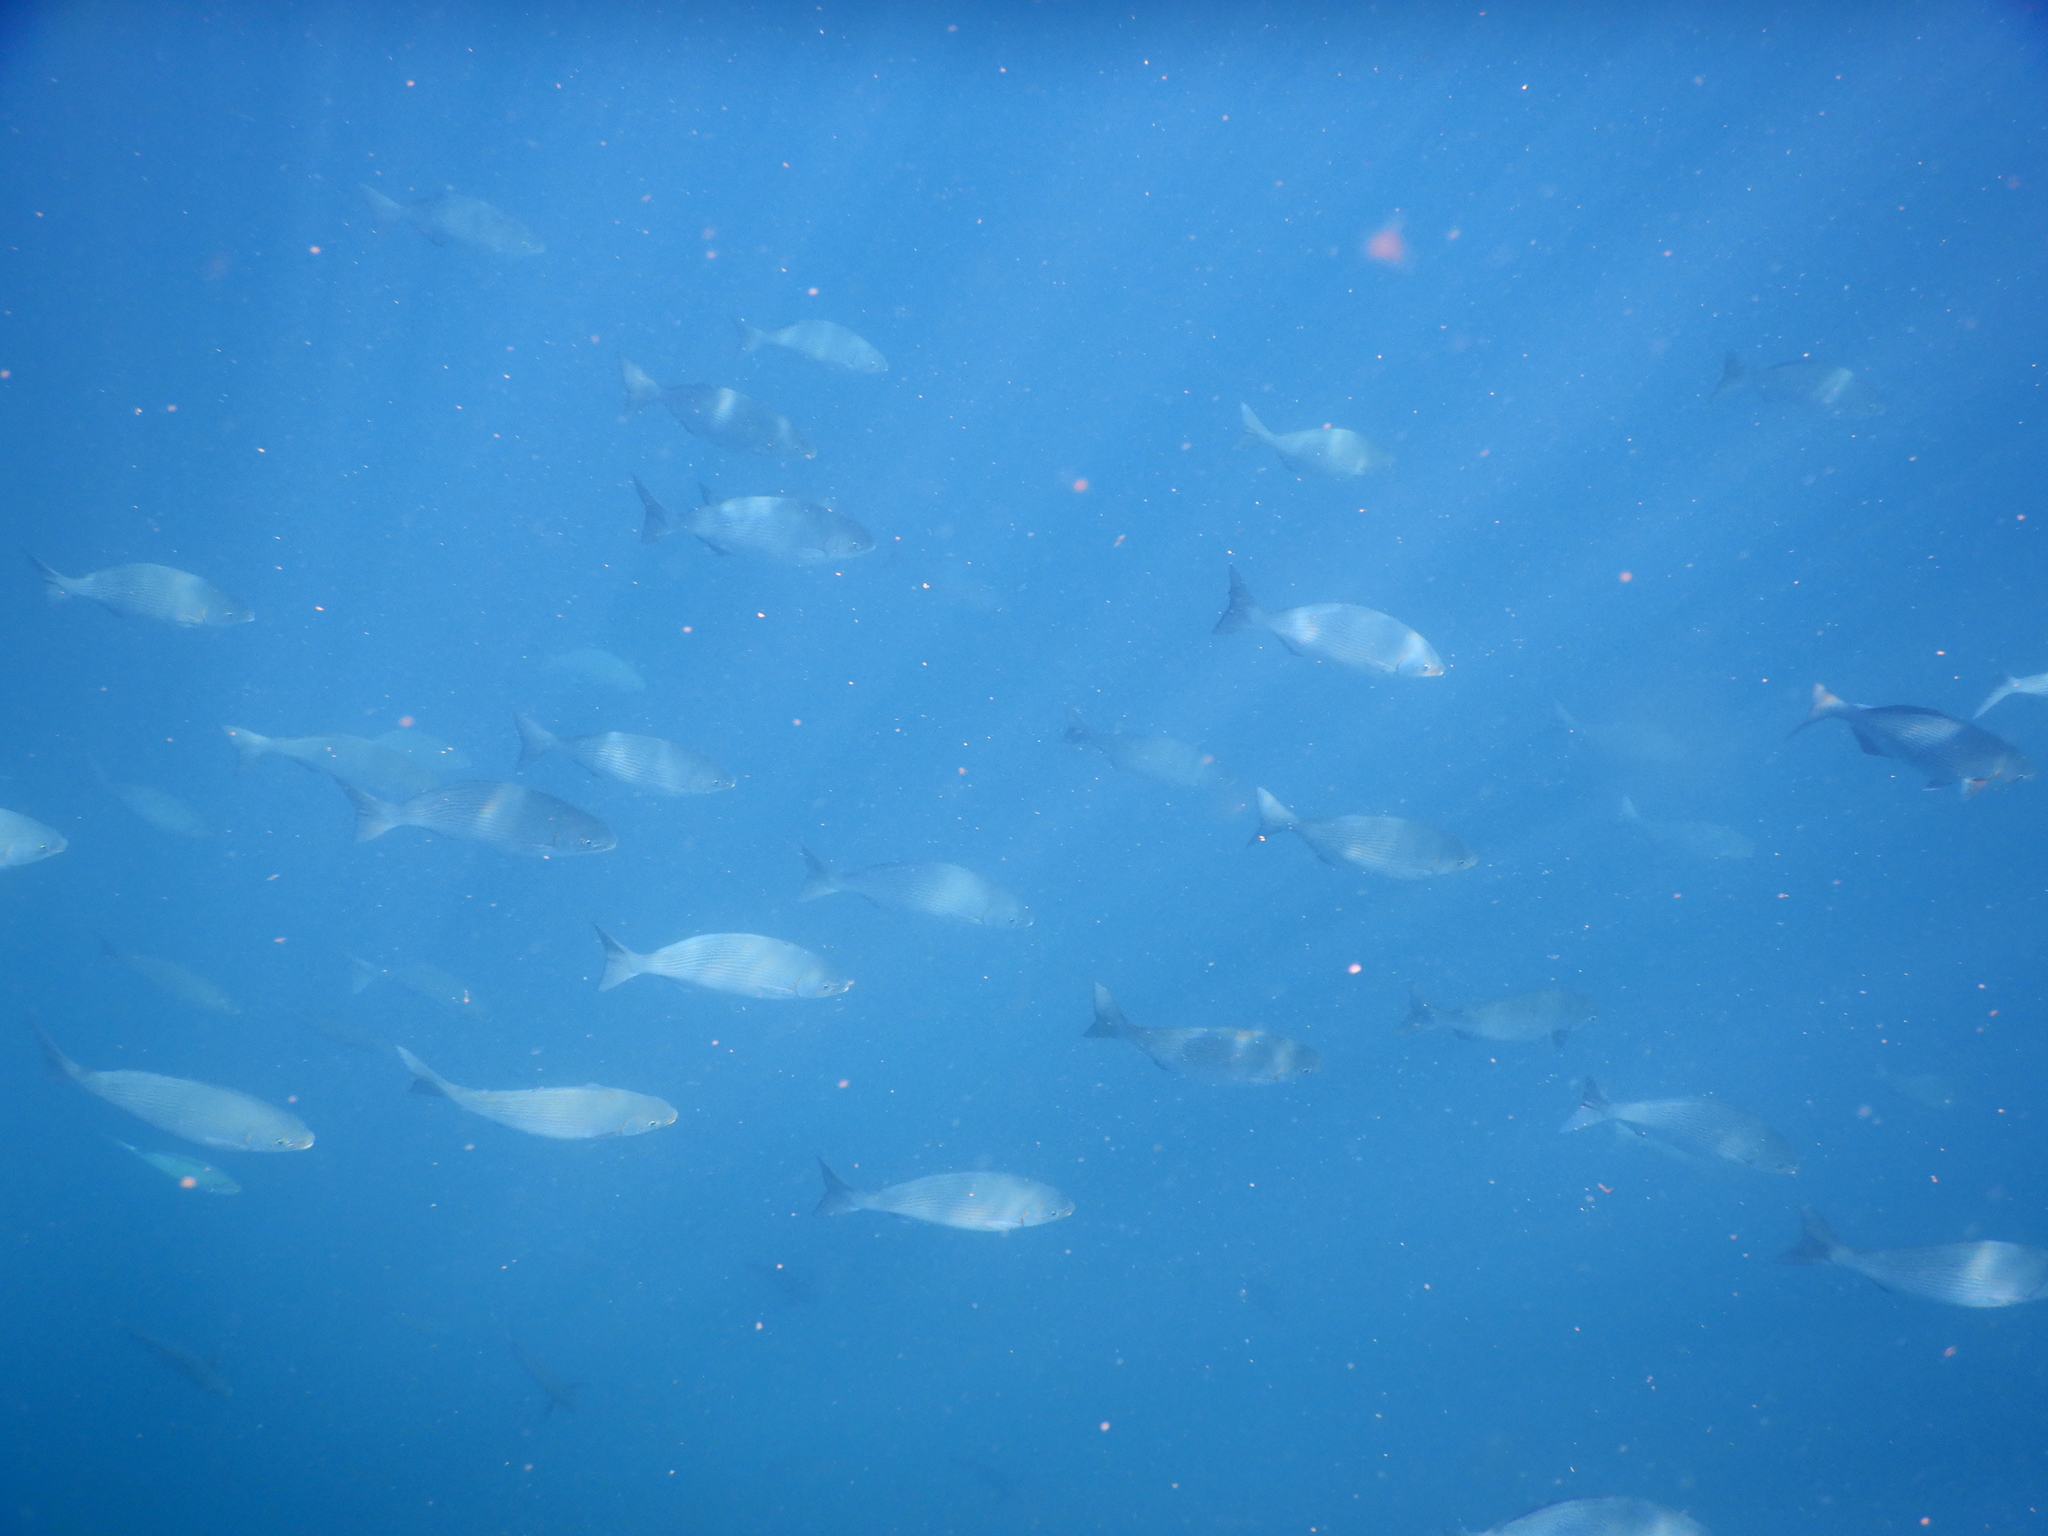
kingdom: Animalia
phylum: Chordata
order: Perciformes
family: Kyphosidae
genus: Kyphosus
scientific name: Kyphosus vaigiensis
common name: Brassy chub
